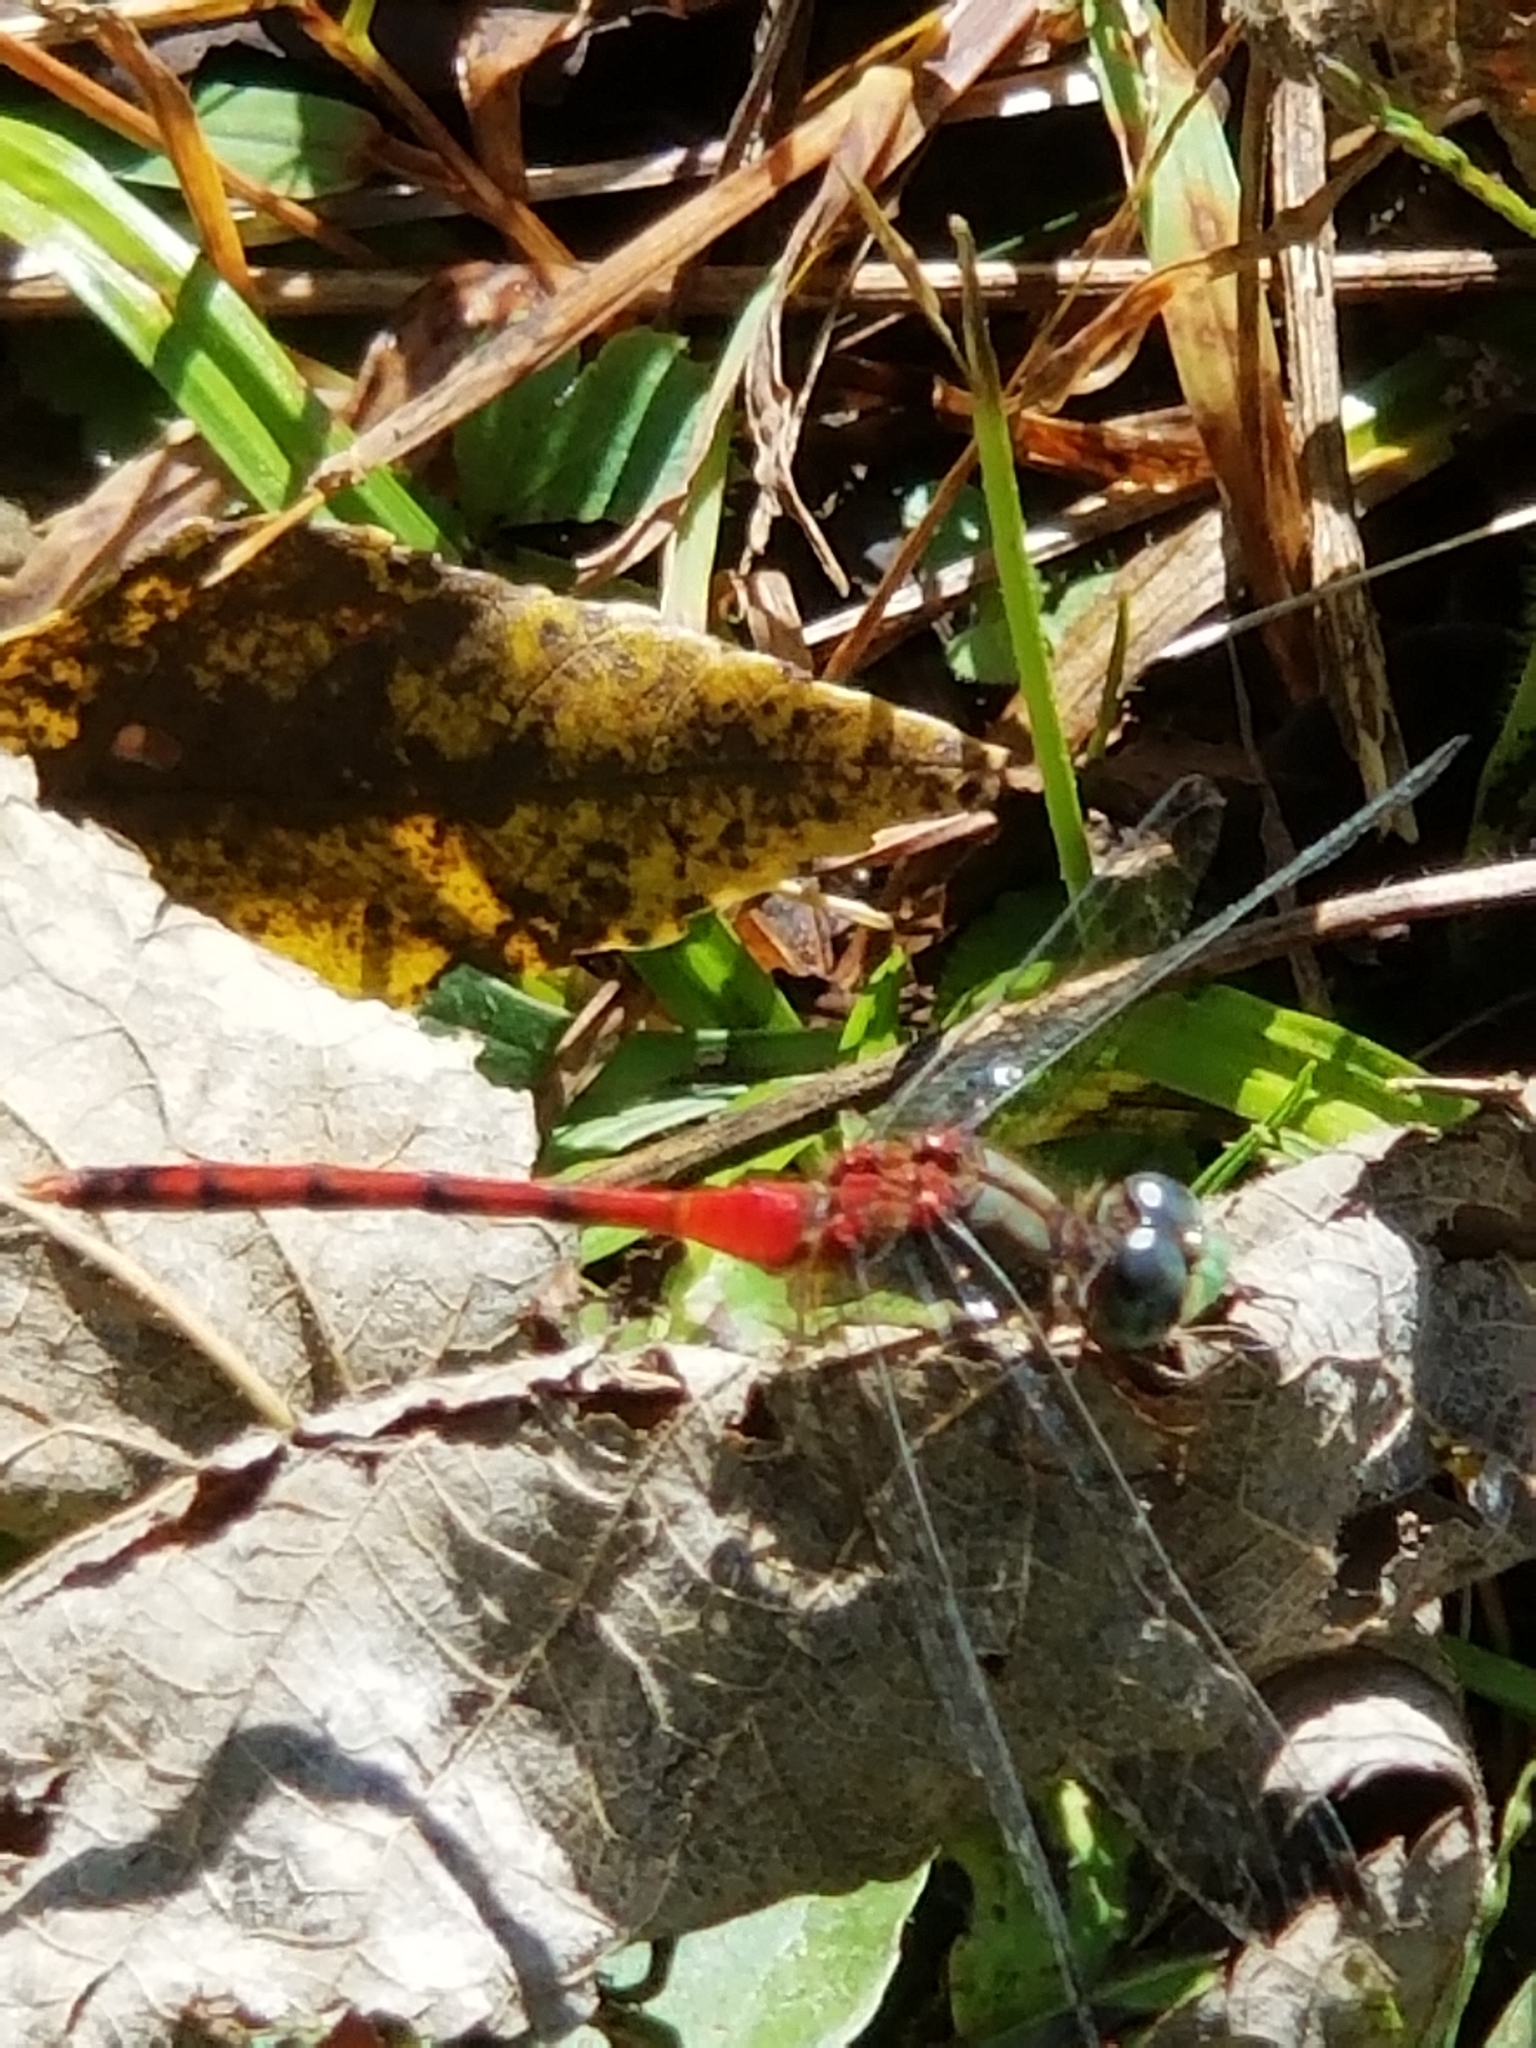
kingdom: Animalia
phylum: Arthropoda
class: Insecta
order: Odonata
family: Libellulidae
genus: Sympetrum
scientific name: Sympetrum ambiguum
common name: Blue-faced meadowhawk
